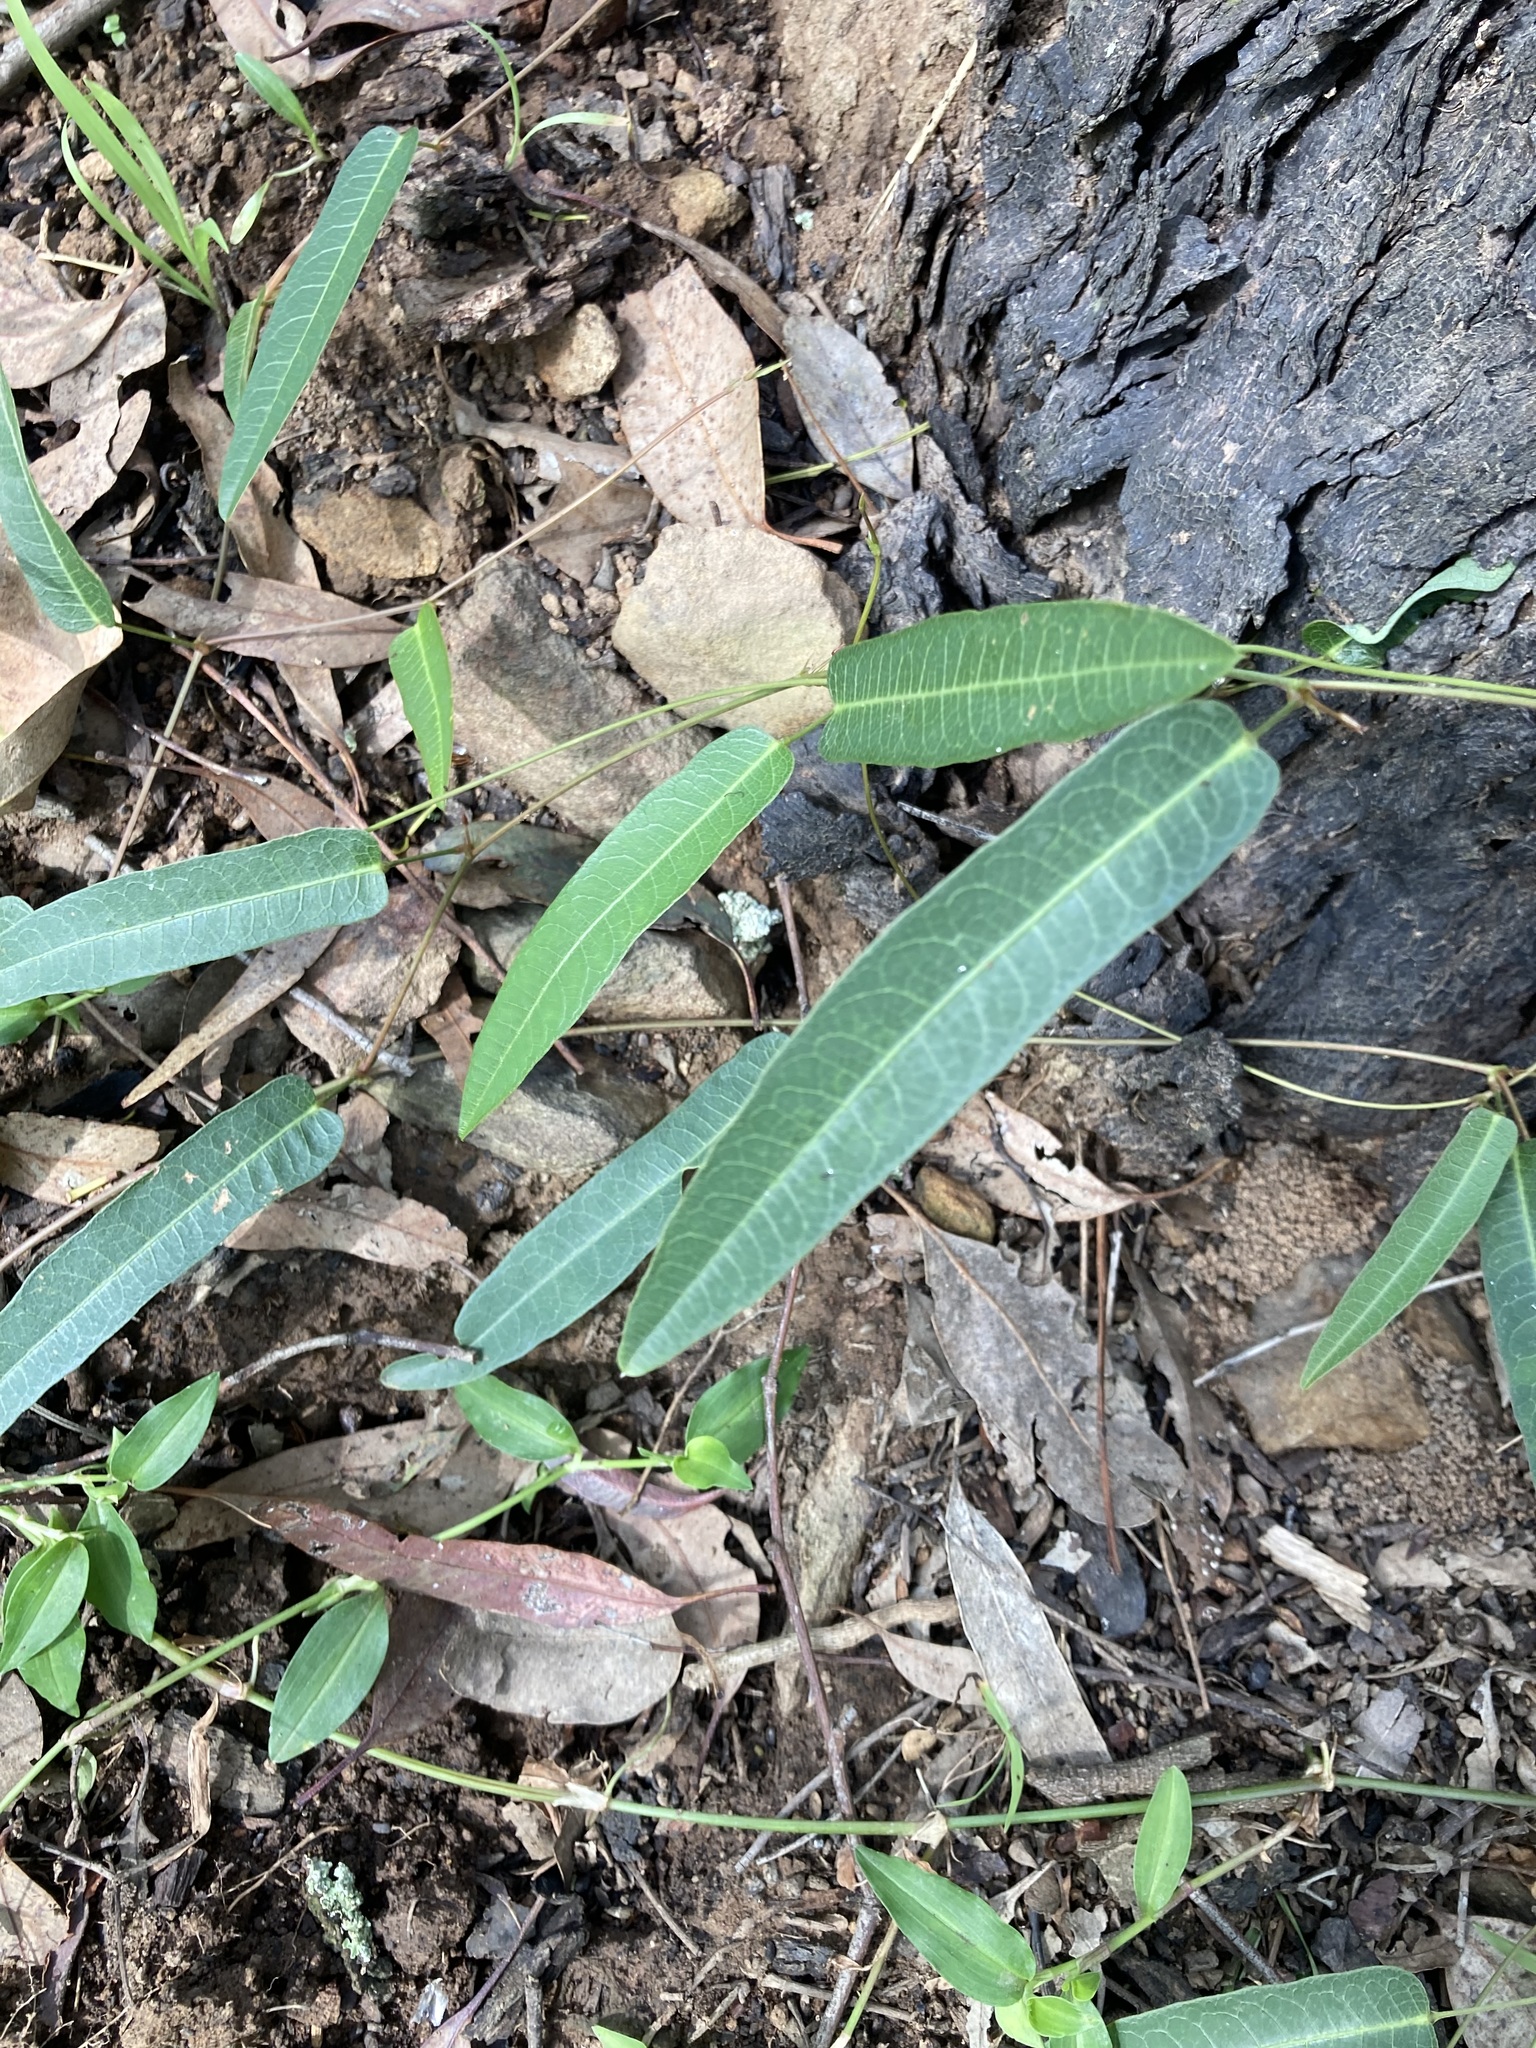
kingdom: Plantae
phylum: Tracheophyta
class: Magnoliopsida
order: Fabales
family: Fabaceae
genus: Hardenbergia
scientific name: Hardenbergia violacea
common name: Coral-pea
